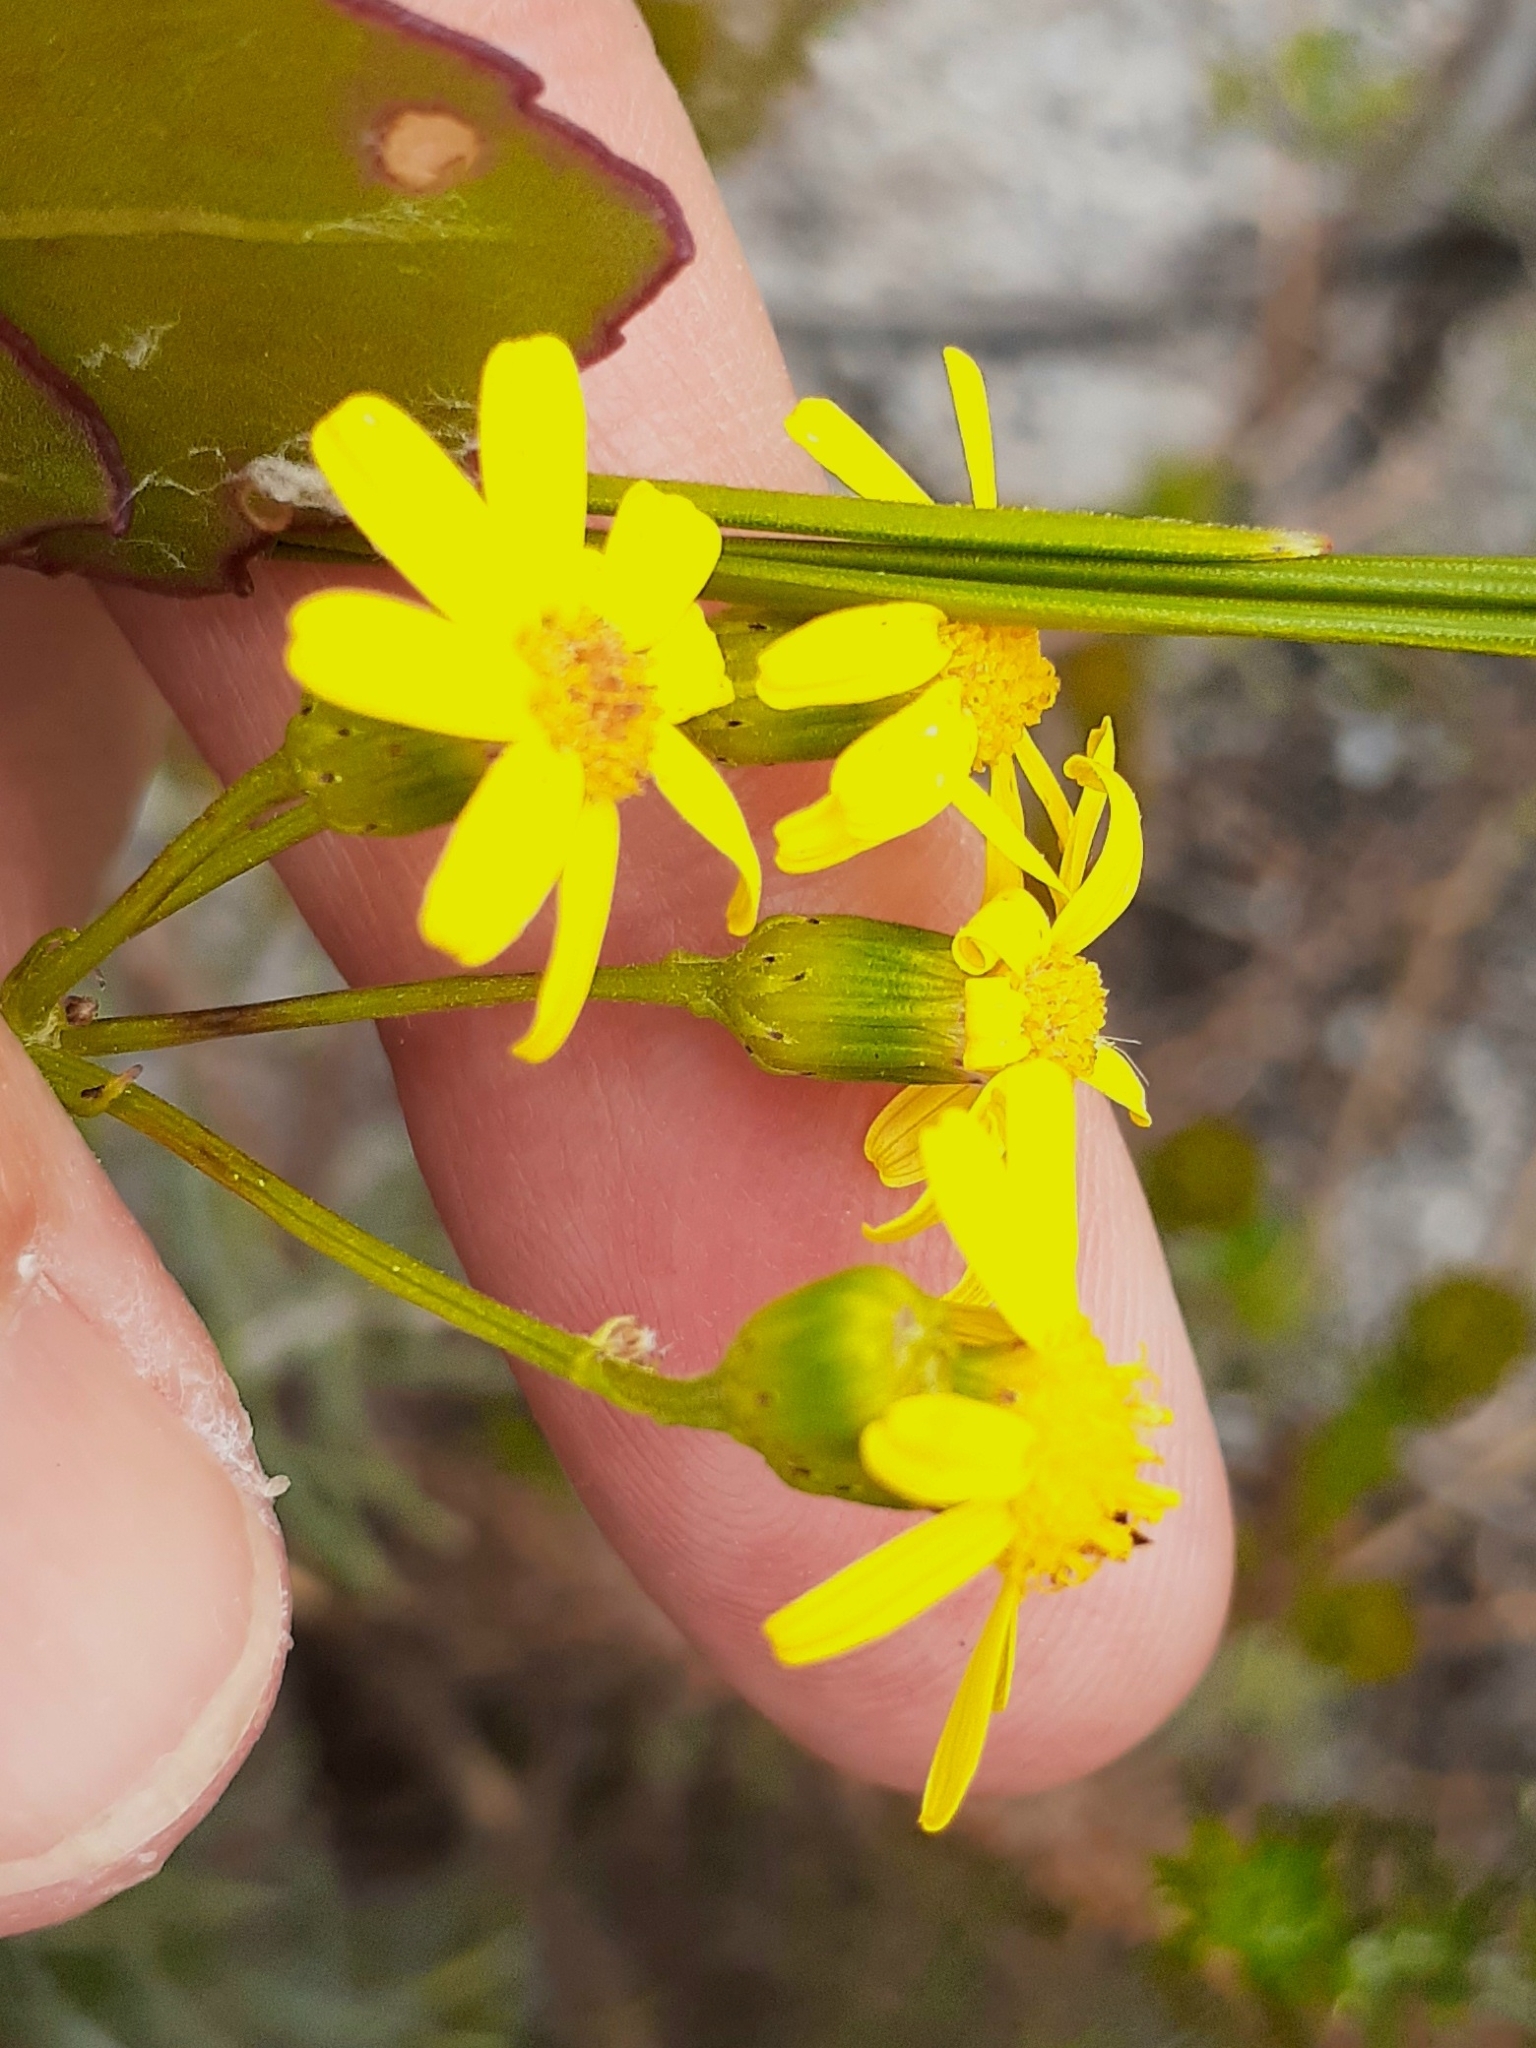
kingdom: Plantae
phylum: Tracheophyta
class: Magnoliopsida
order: Asterales
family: Asteraceae
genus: Senecio
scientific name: Senecio burchellii
